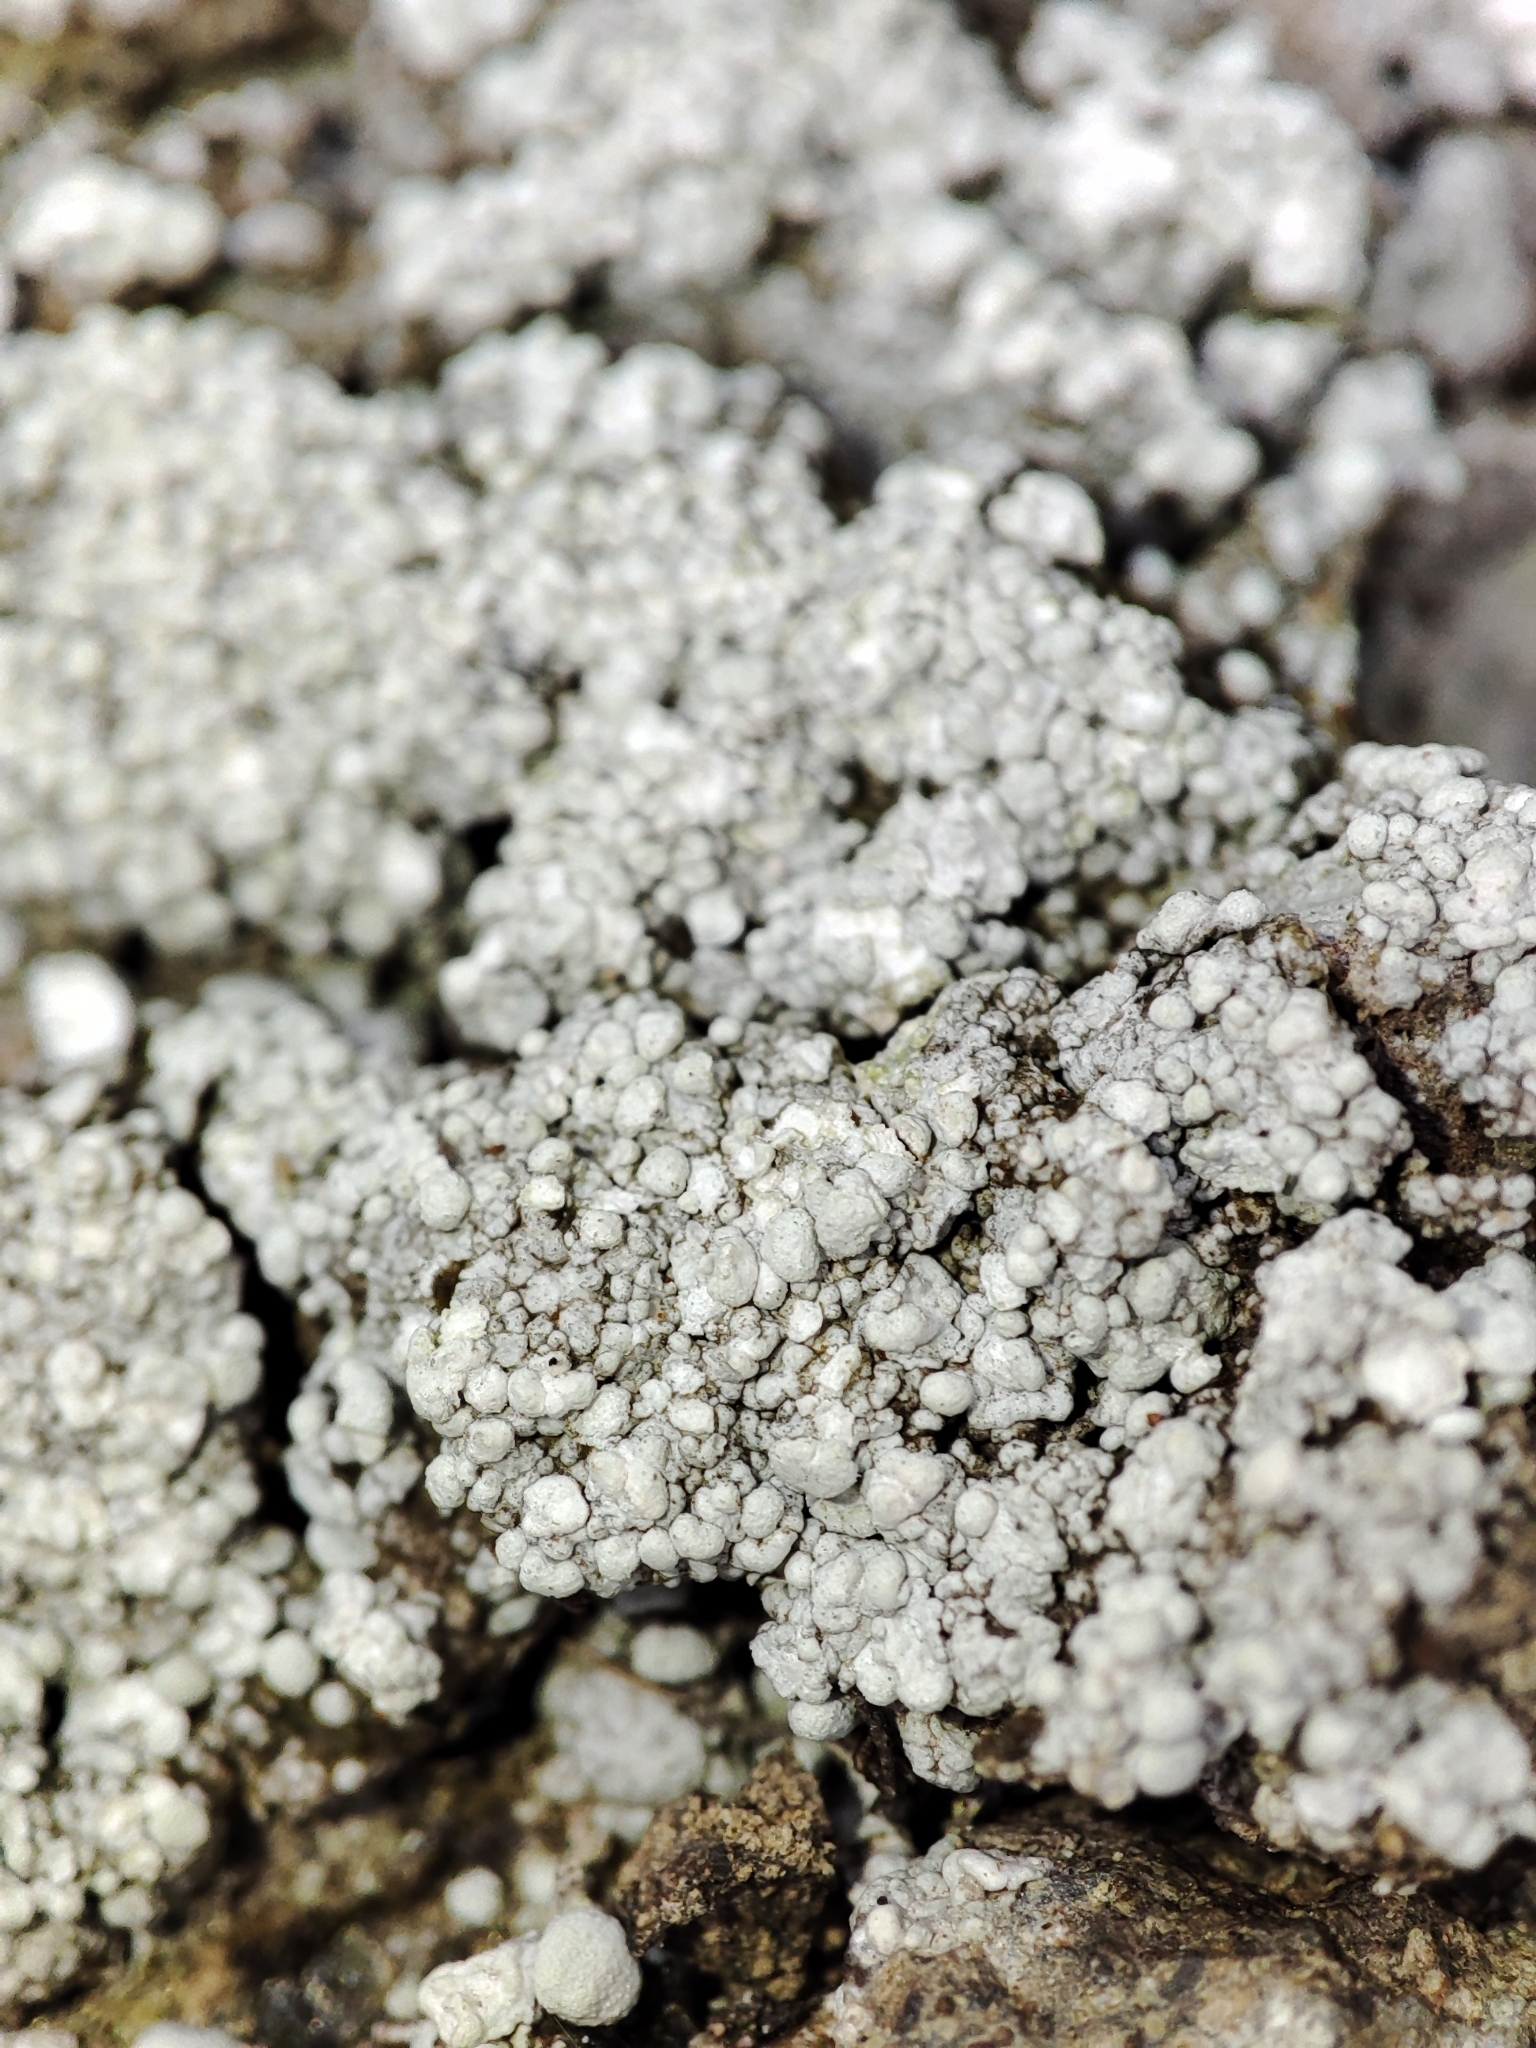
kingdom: Fungi
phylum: Ascomycota
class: Lecanoromycetes
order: Pertusariales
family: Icmadophilaceae
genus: Dibaeis
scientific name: Dibaeis baeomyces
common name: Pink earth lichen
